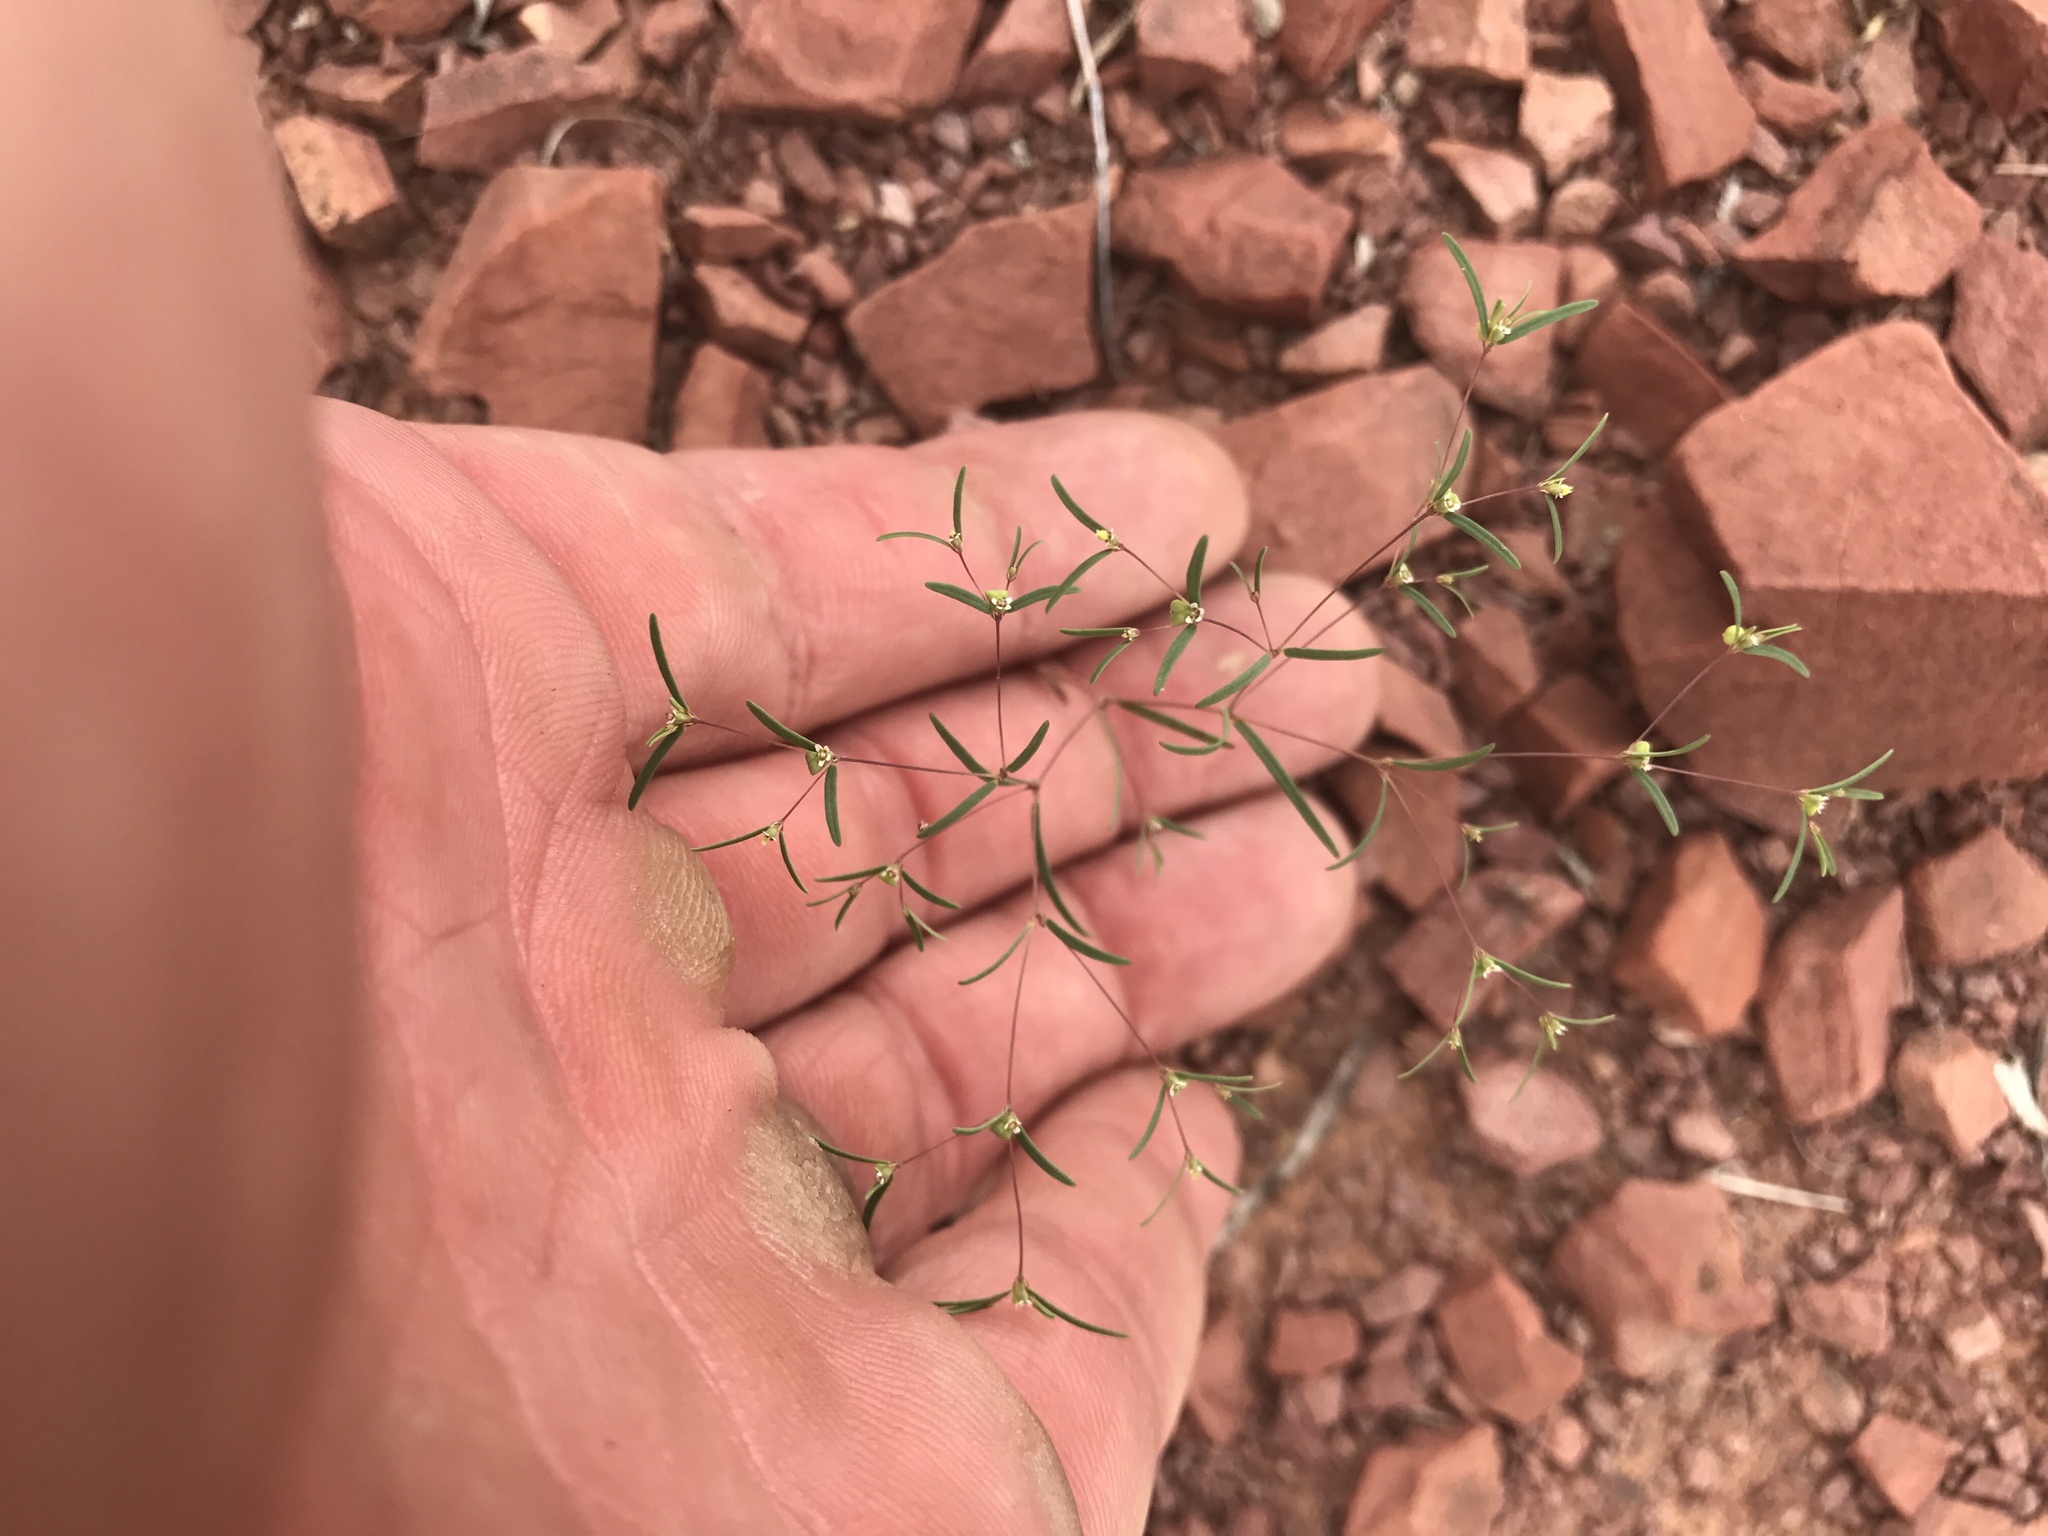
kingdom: Plantae
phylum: Tracheophyta
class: Magnoliopsida
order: Malpighiales
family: Euphorbiaceae
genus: Euphorbia
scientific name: Euphorbia gracillima
